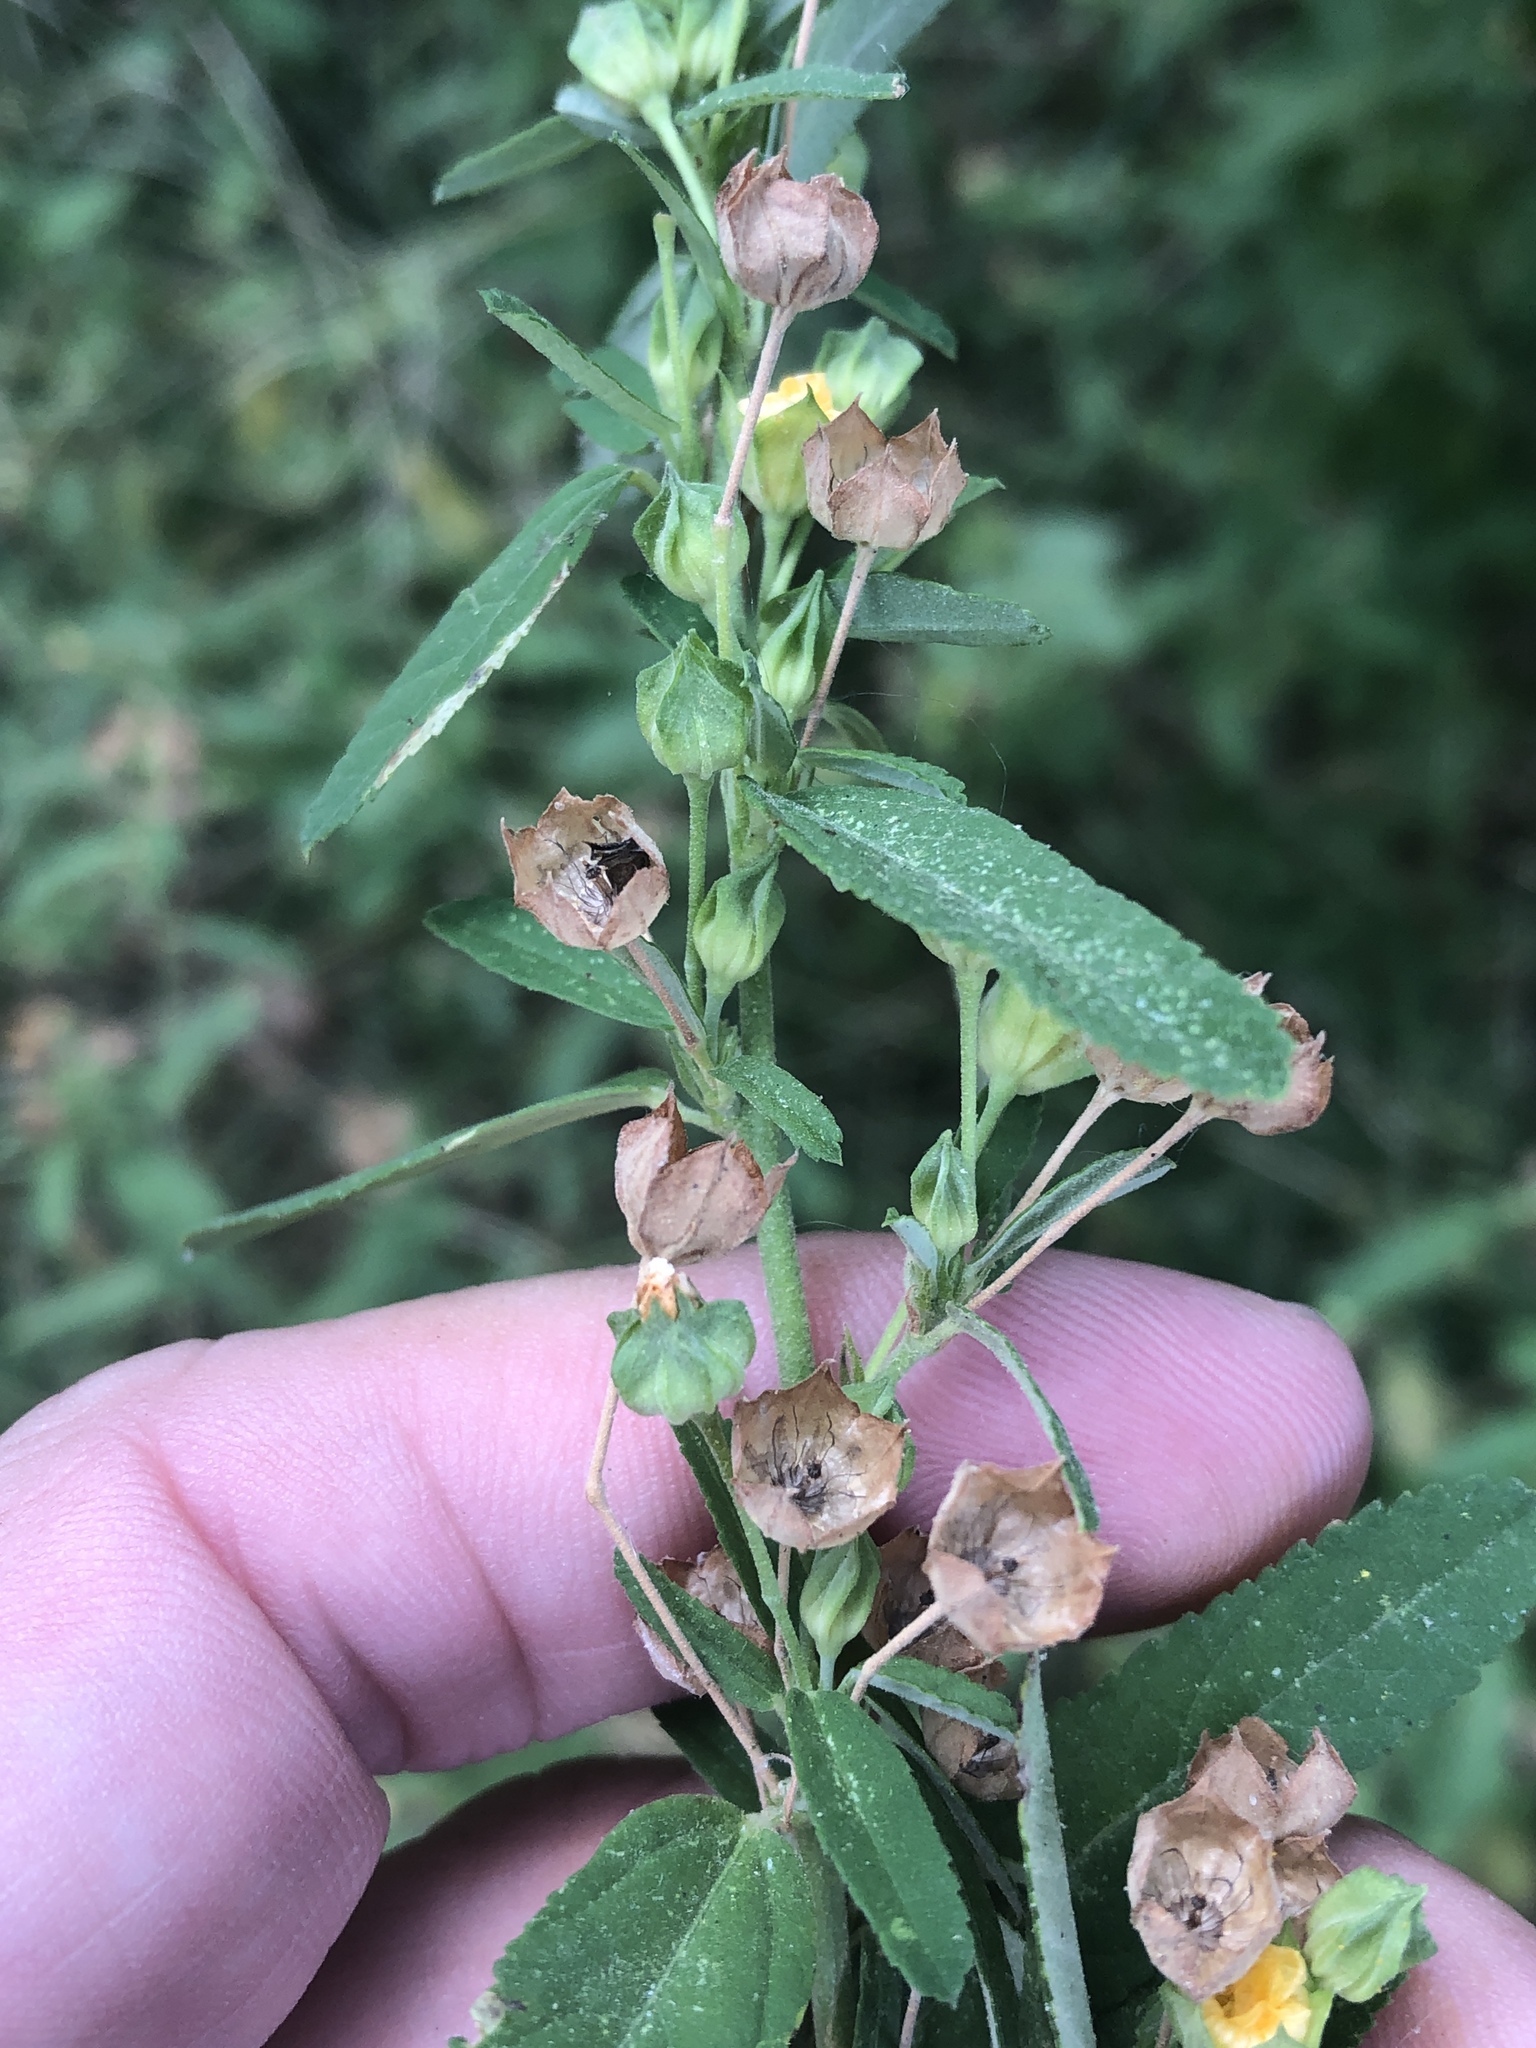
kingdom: Plantae
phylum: Tracheophyta
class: Magnoliopsida
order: Malvales
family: Malvaceae
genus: Sida
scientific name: Sida rhombifolia
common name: Queensland-hemp
